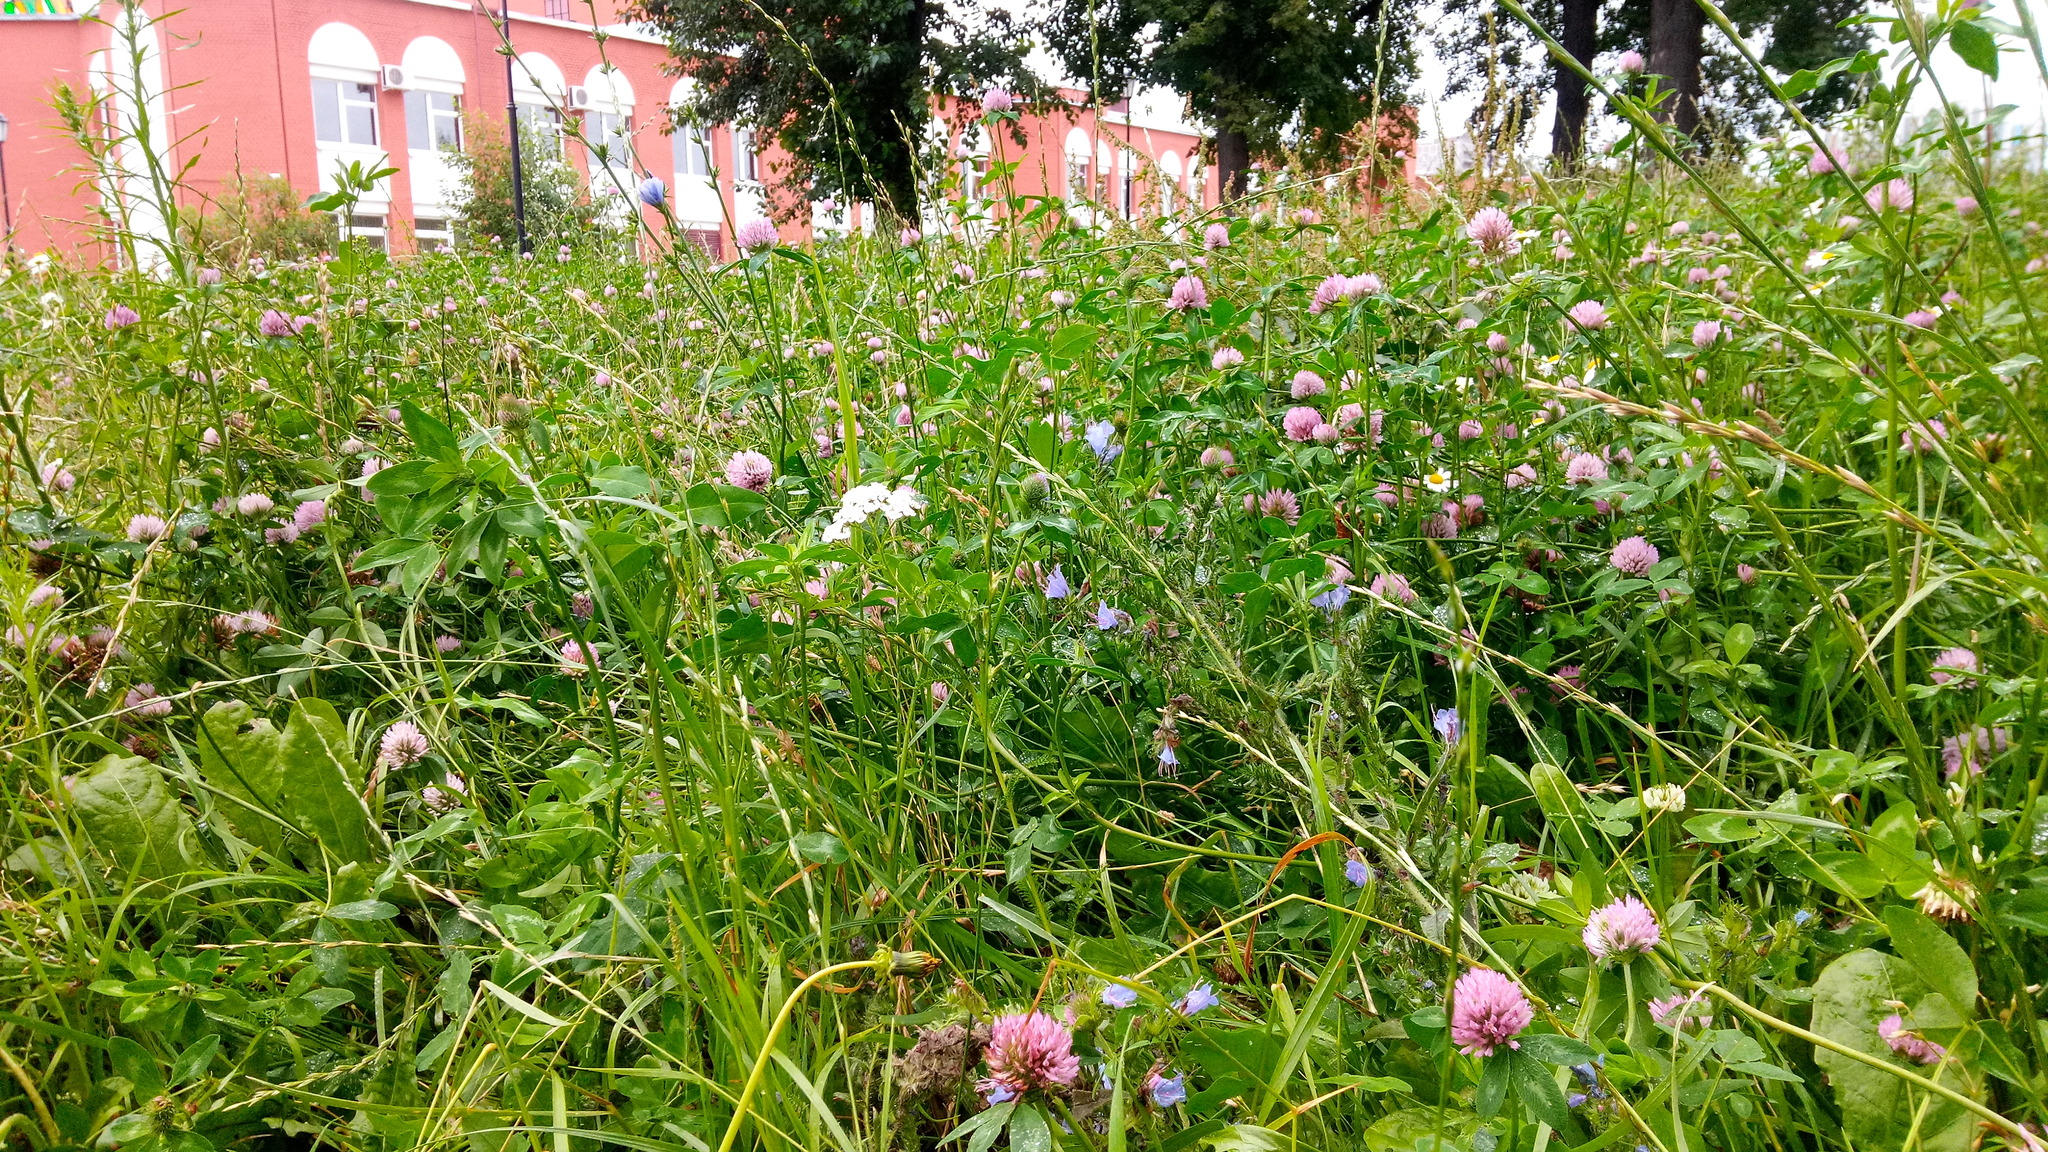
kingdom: Plantae
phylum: Tracheophyta
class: Magnoliopsida
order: Boraginales
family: Boraginaceae
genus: Echium
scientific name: Echium vulgare
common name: Common viper's bugloss
